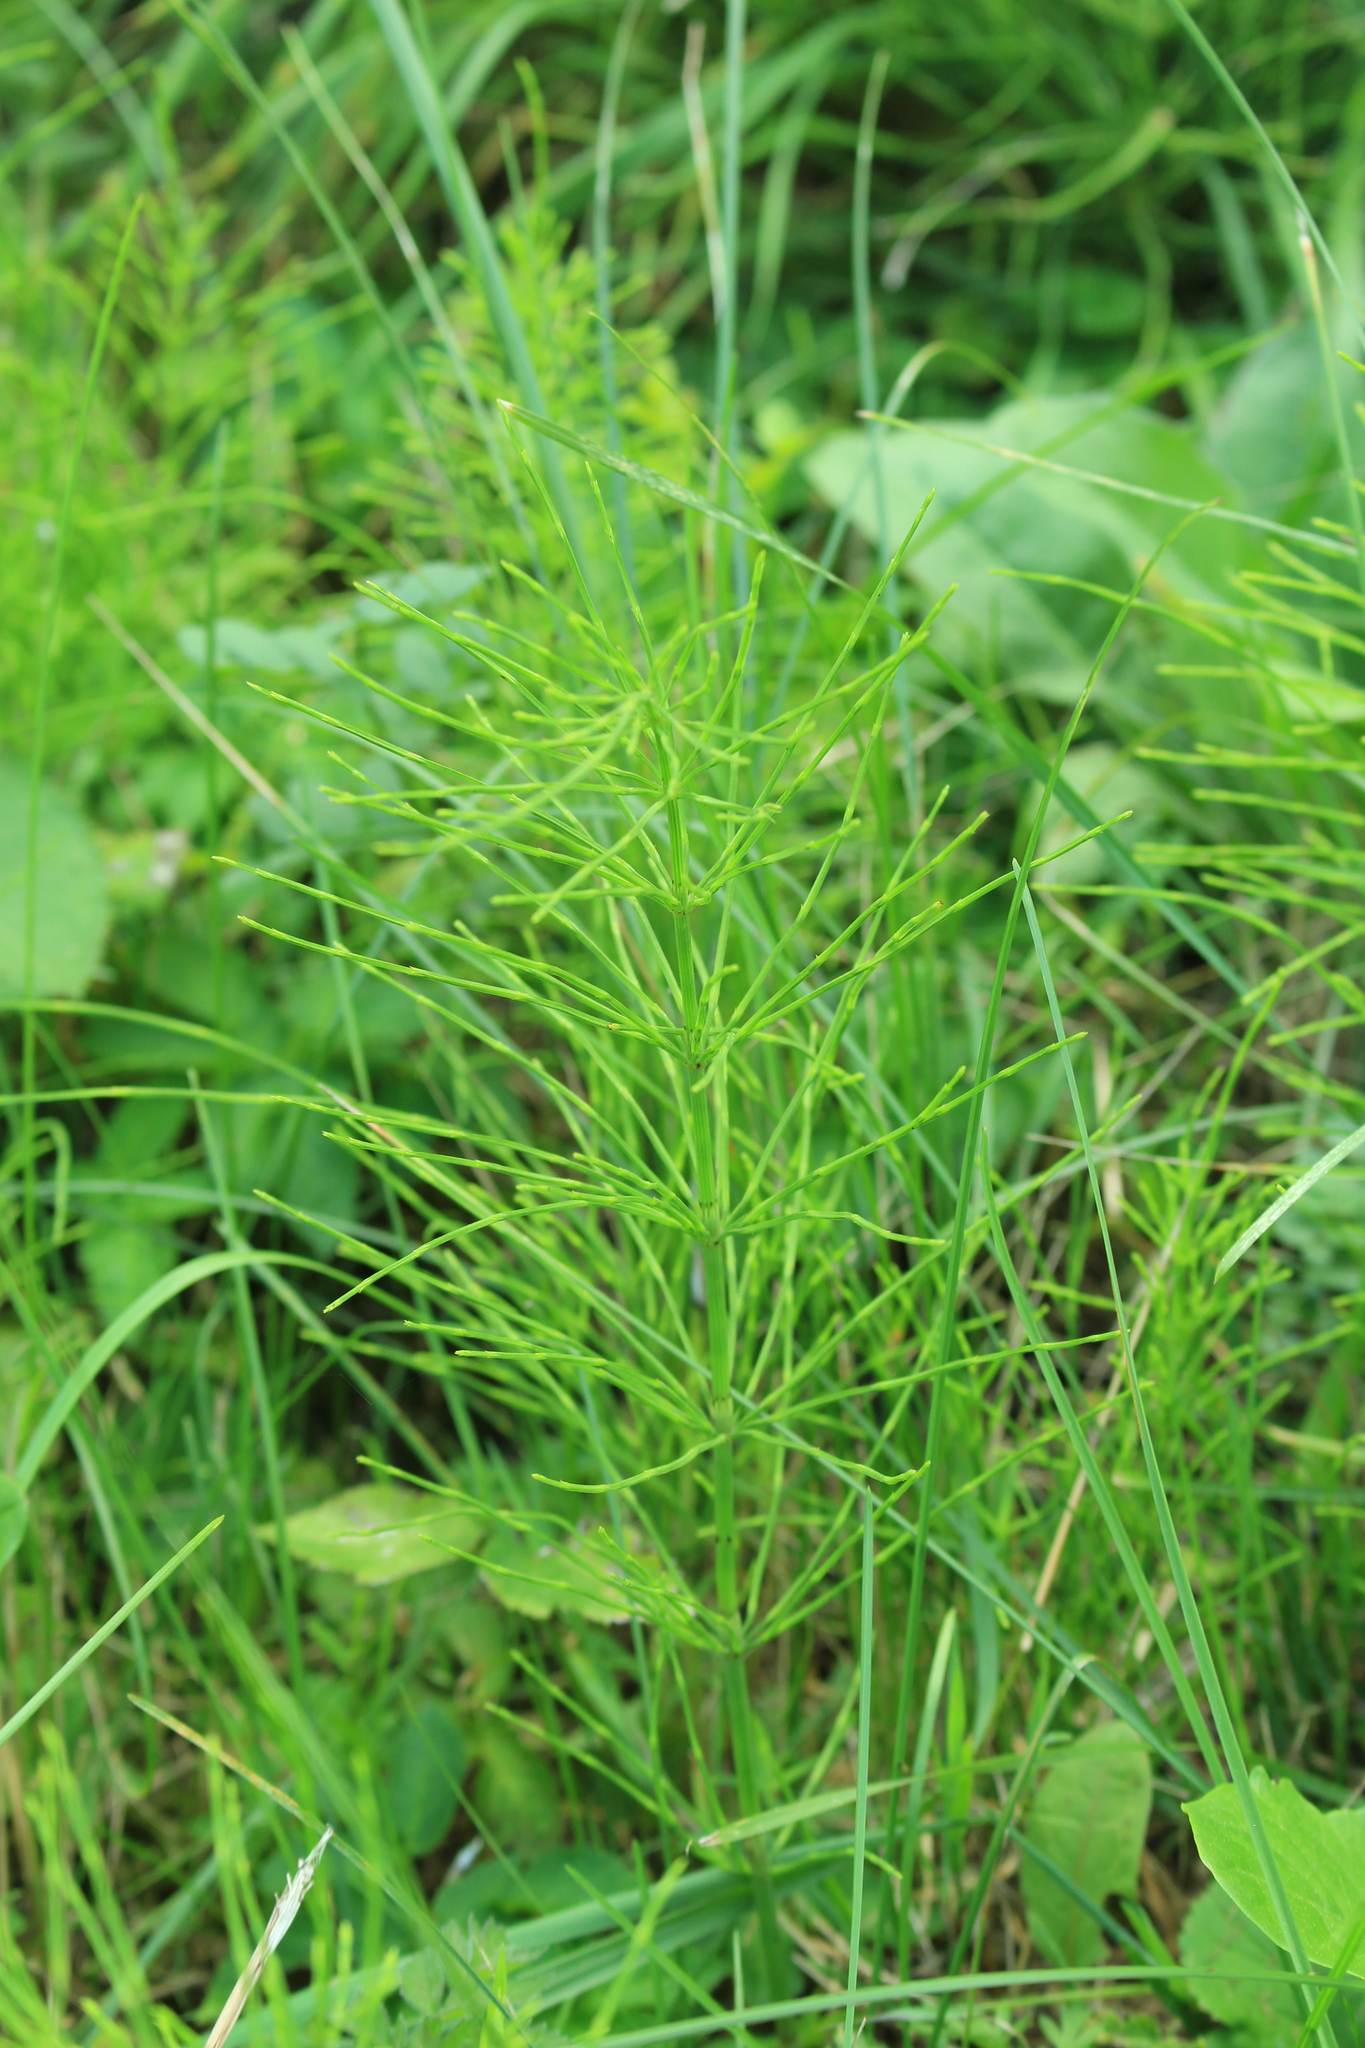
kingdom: Plantae
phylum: Tracheophyta
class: Polypodiopsida
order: Equisetales
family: Equisetaceae
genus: Equisetum
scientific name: Equisetum arvense
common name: Field horsetail
